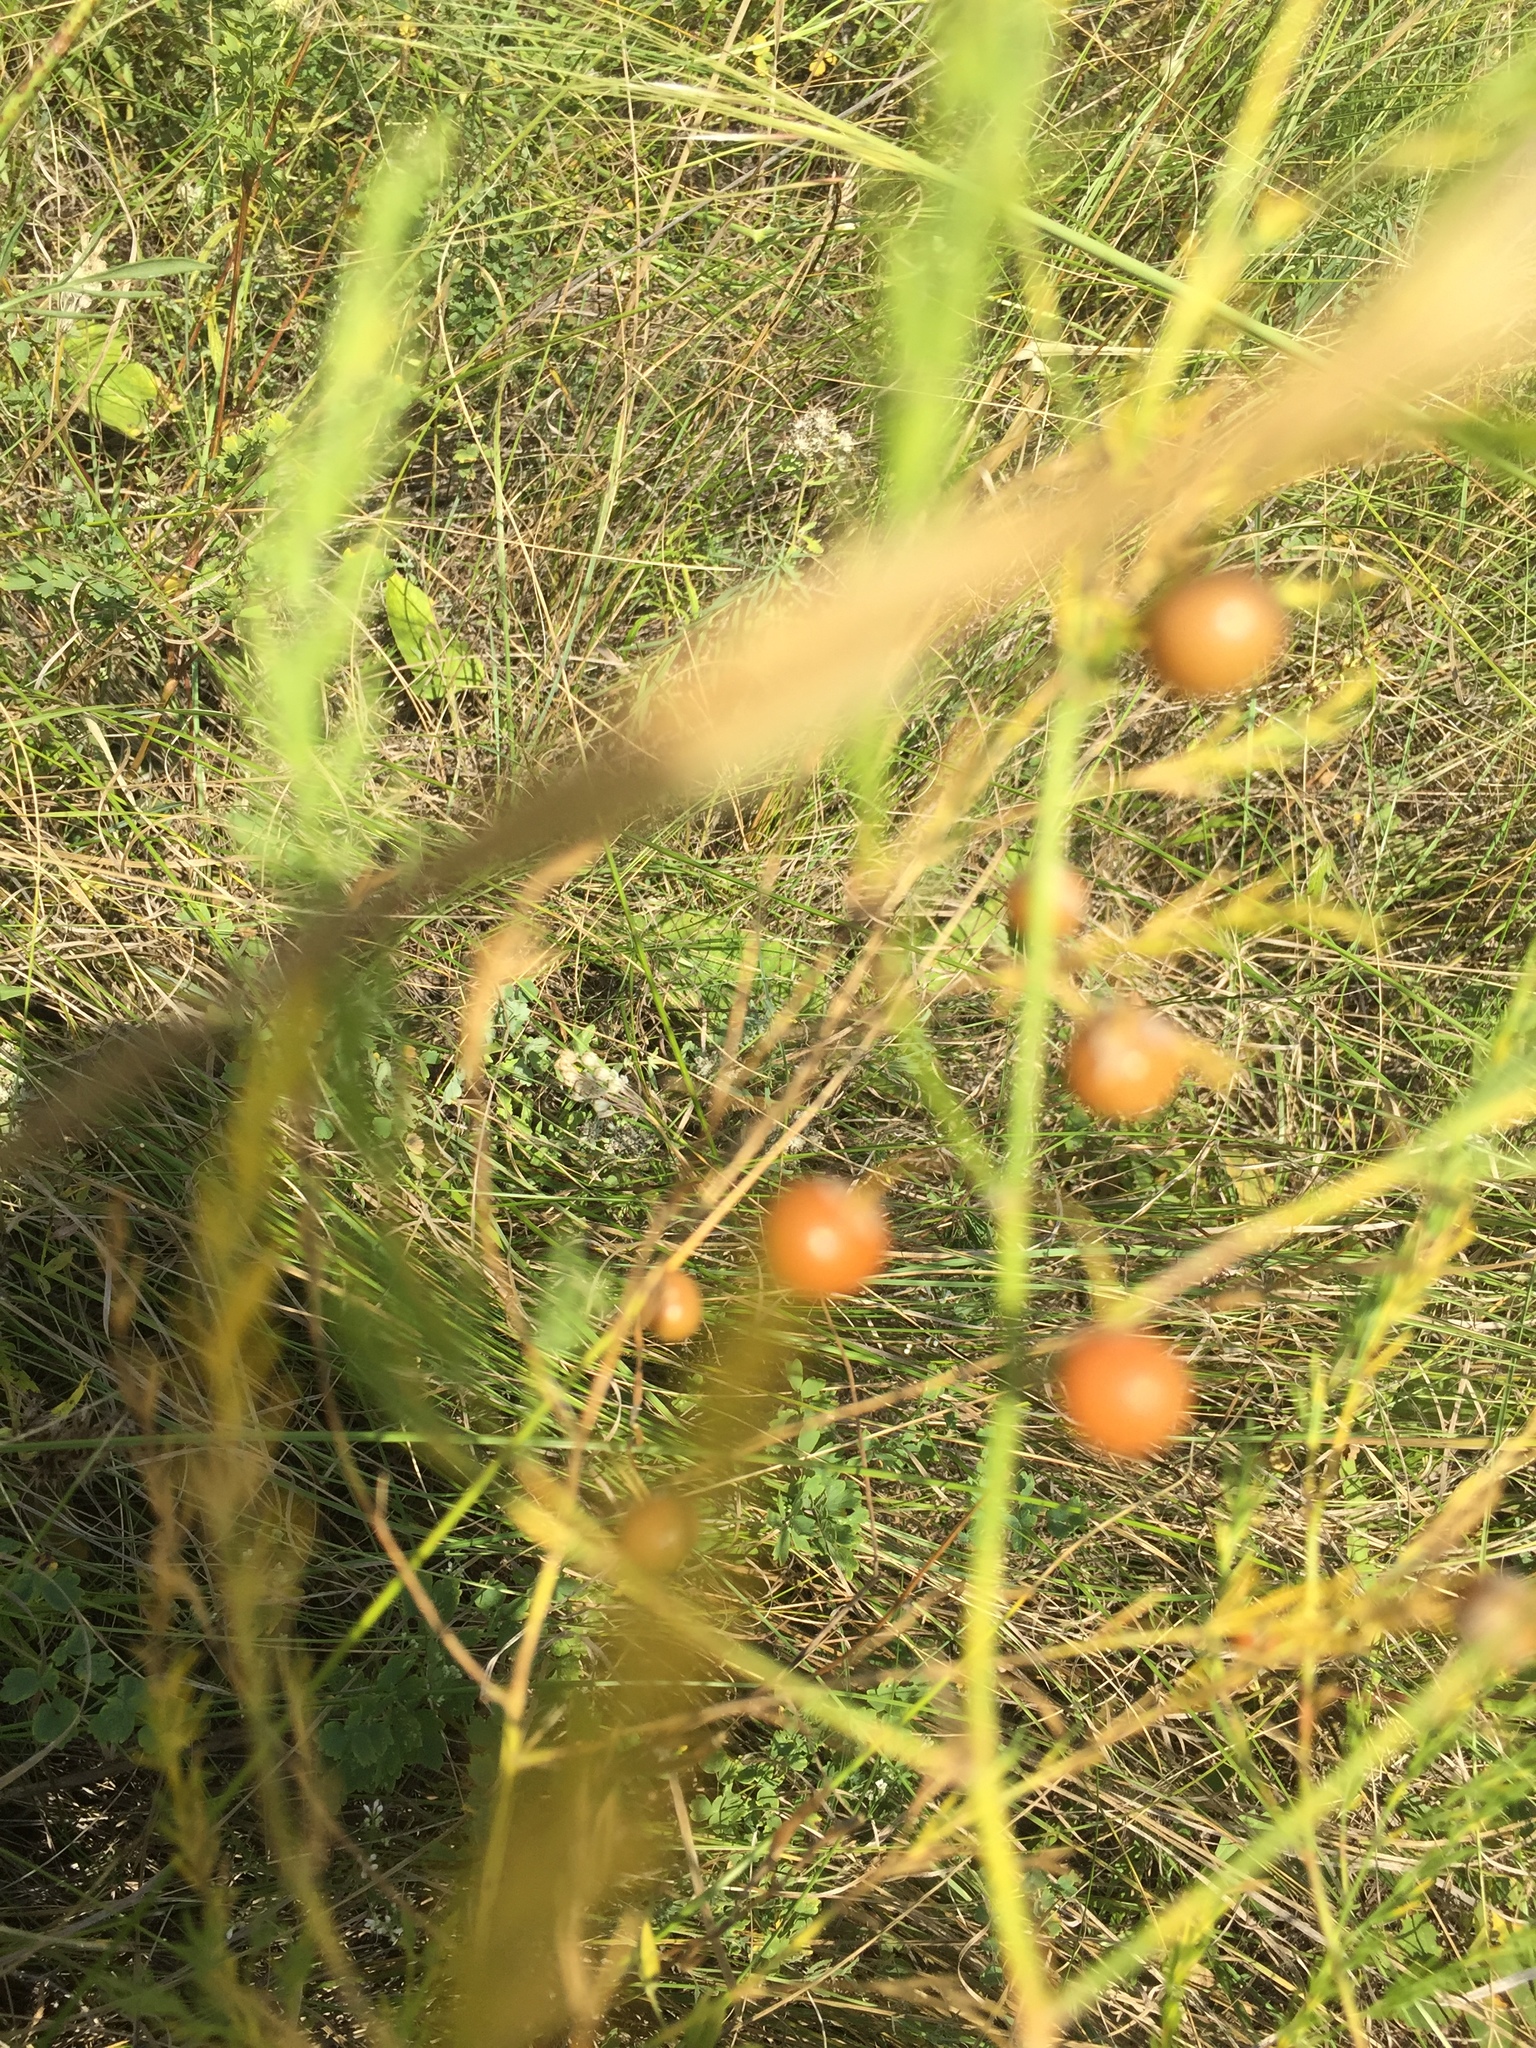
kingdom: Plantae
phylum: Tracheophyta
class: Liliopsida
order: Asparagales
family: Asparagaceae
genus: Asparagus
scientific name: Asparagus officinalis
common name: Garden asparagus
